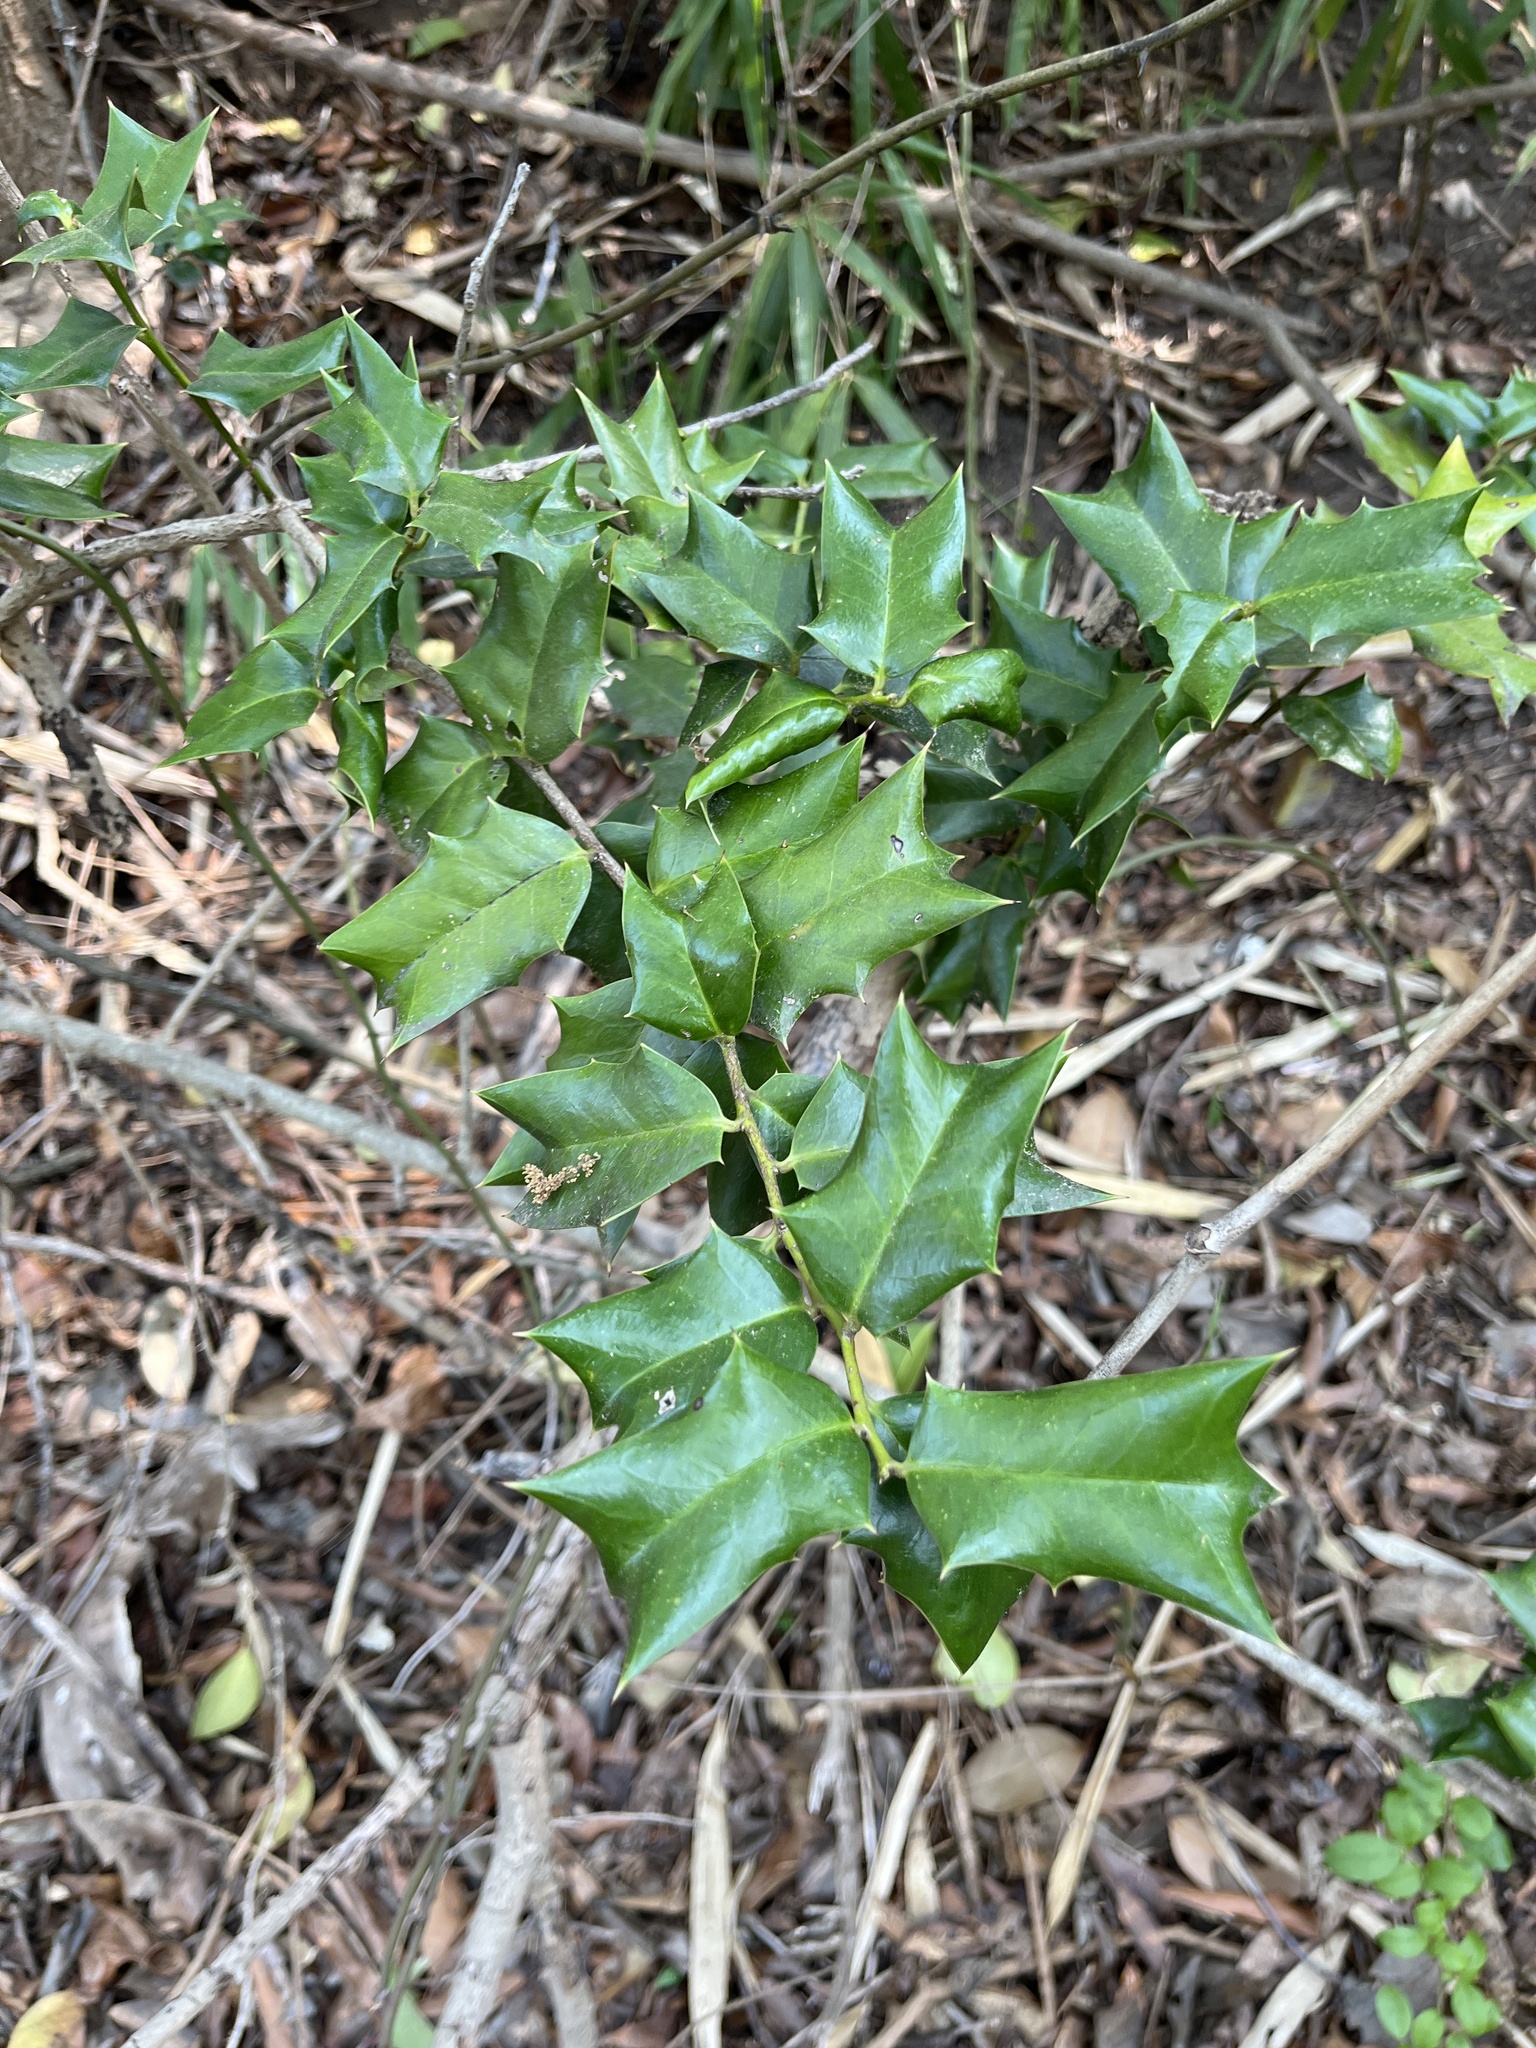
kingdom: Plantae
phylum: Tracheophyta
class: Magnoliopsida
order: Aquifoliales
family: Aquifoliaceae
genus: Ilex
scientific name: Ilex cornuta
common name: Chinese holly
